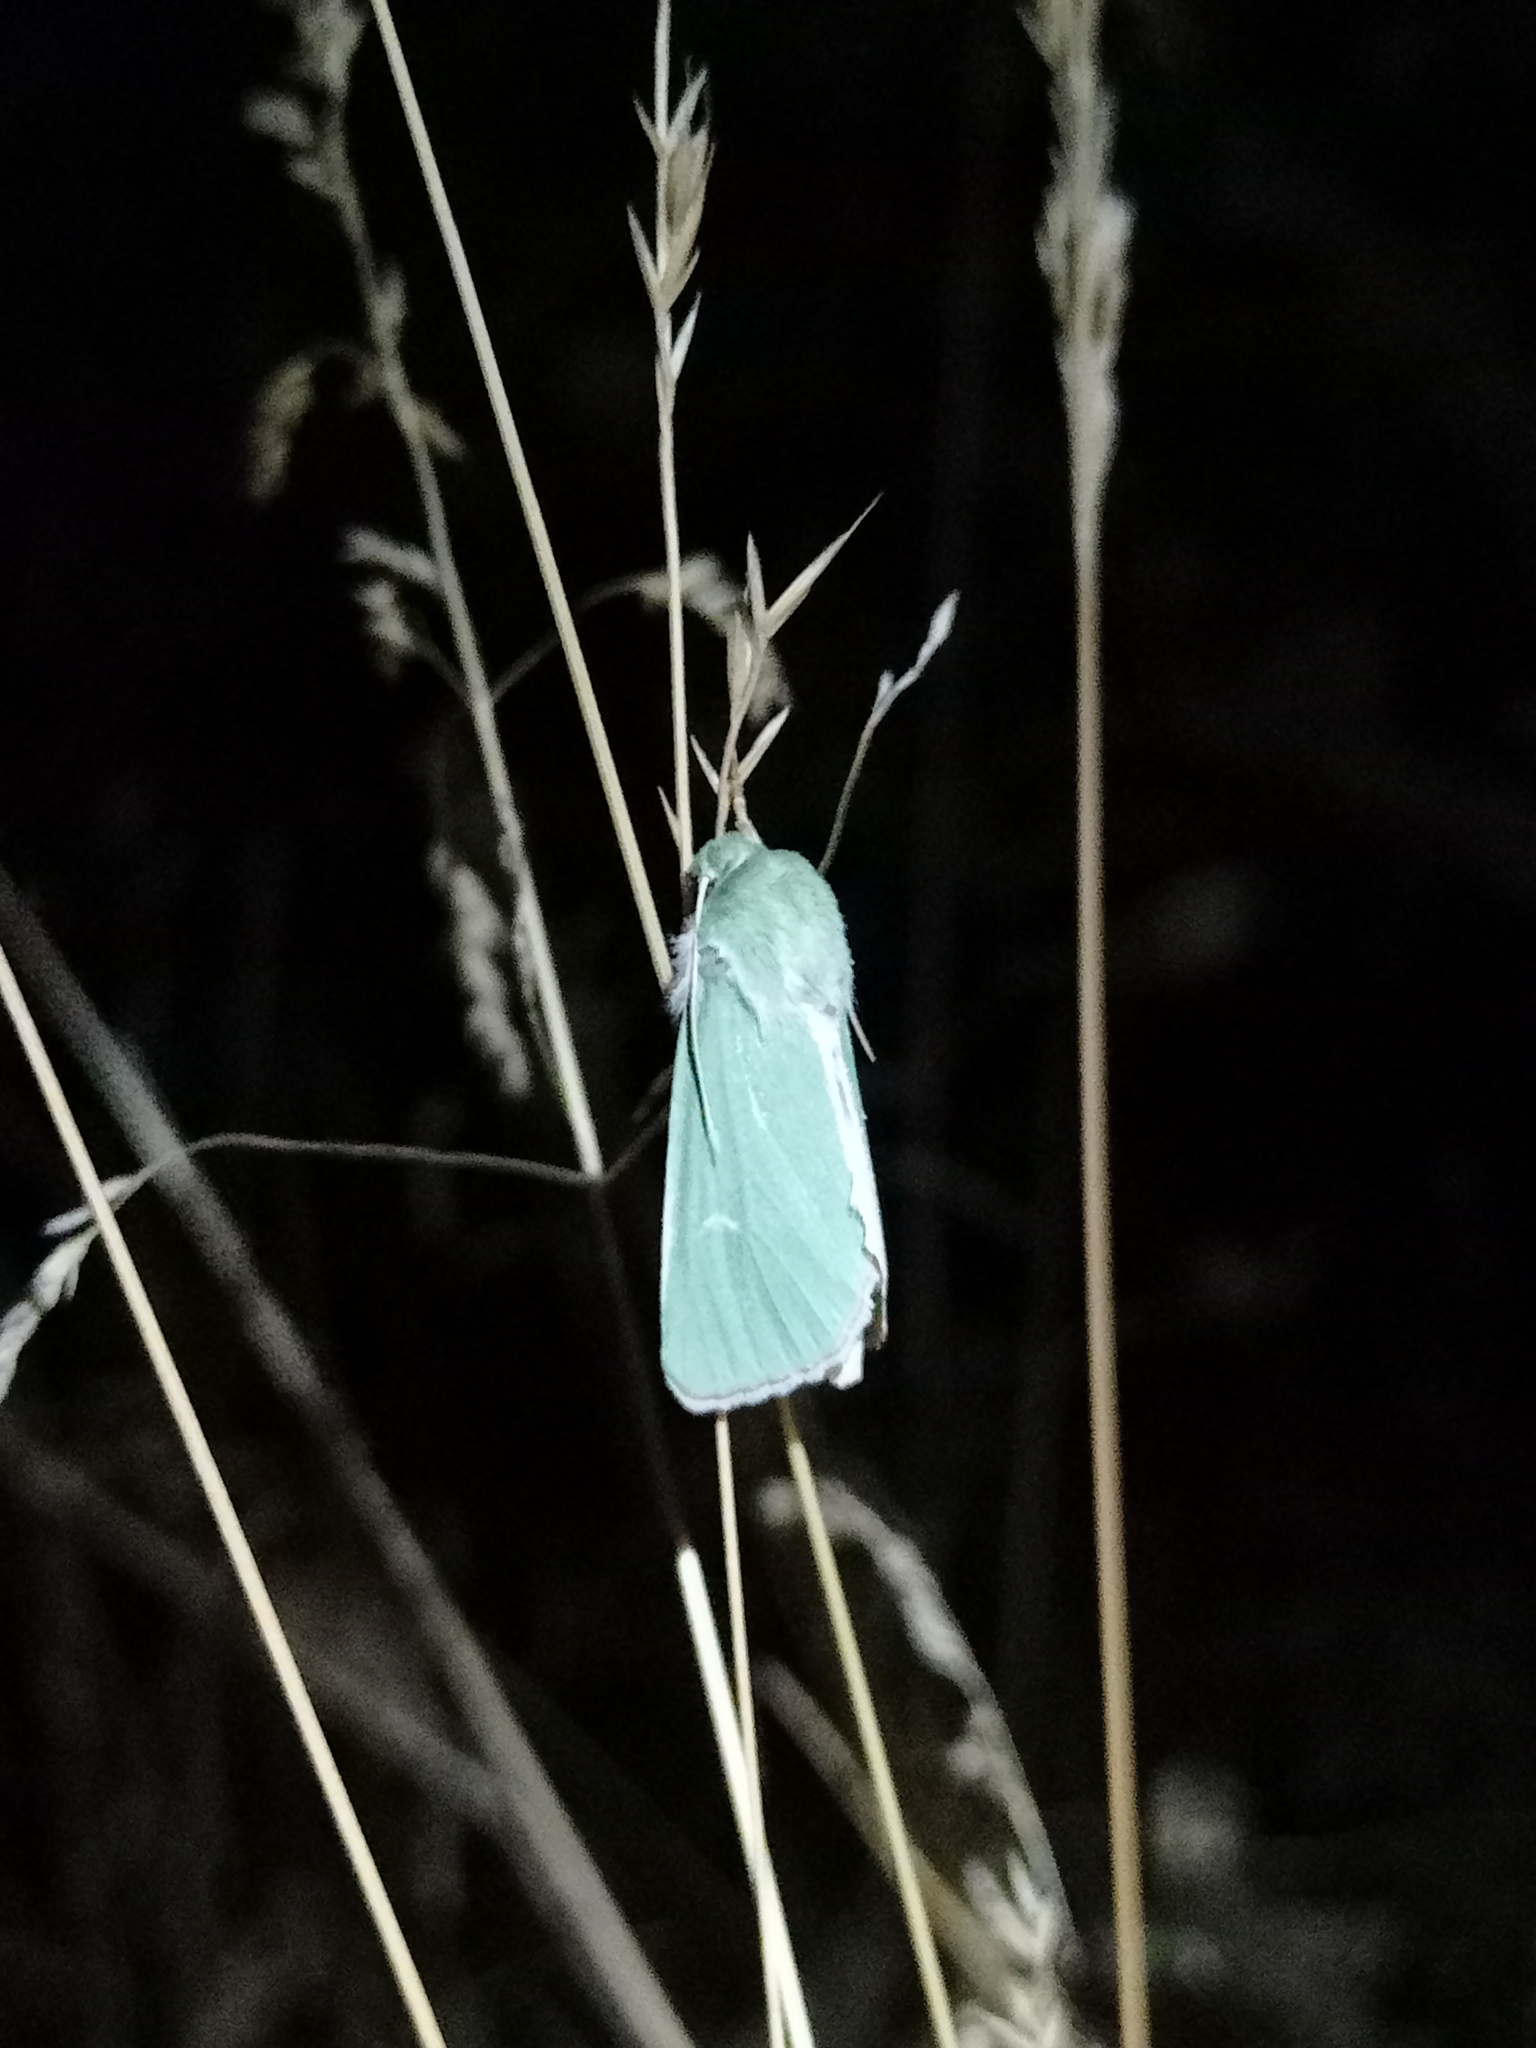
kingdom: Animalia
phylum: Arthropoda
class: Insecta
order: Lepidoptera
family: Noctuidae
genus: Calamia
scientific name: Calamia tridens
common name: Burren green
